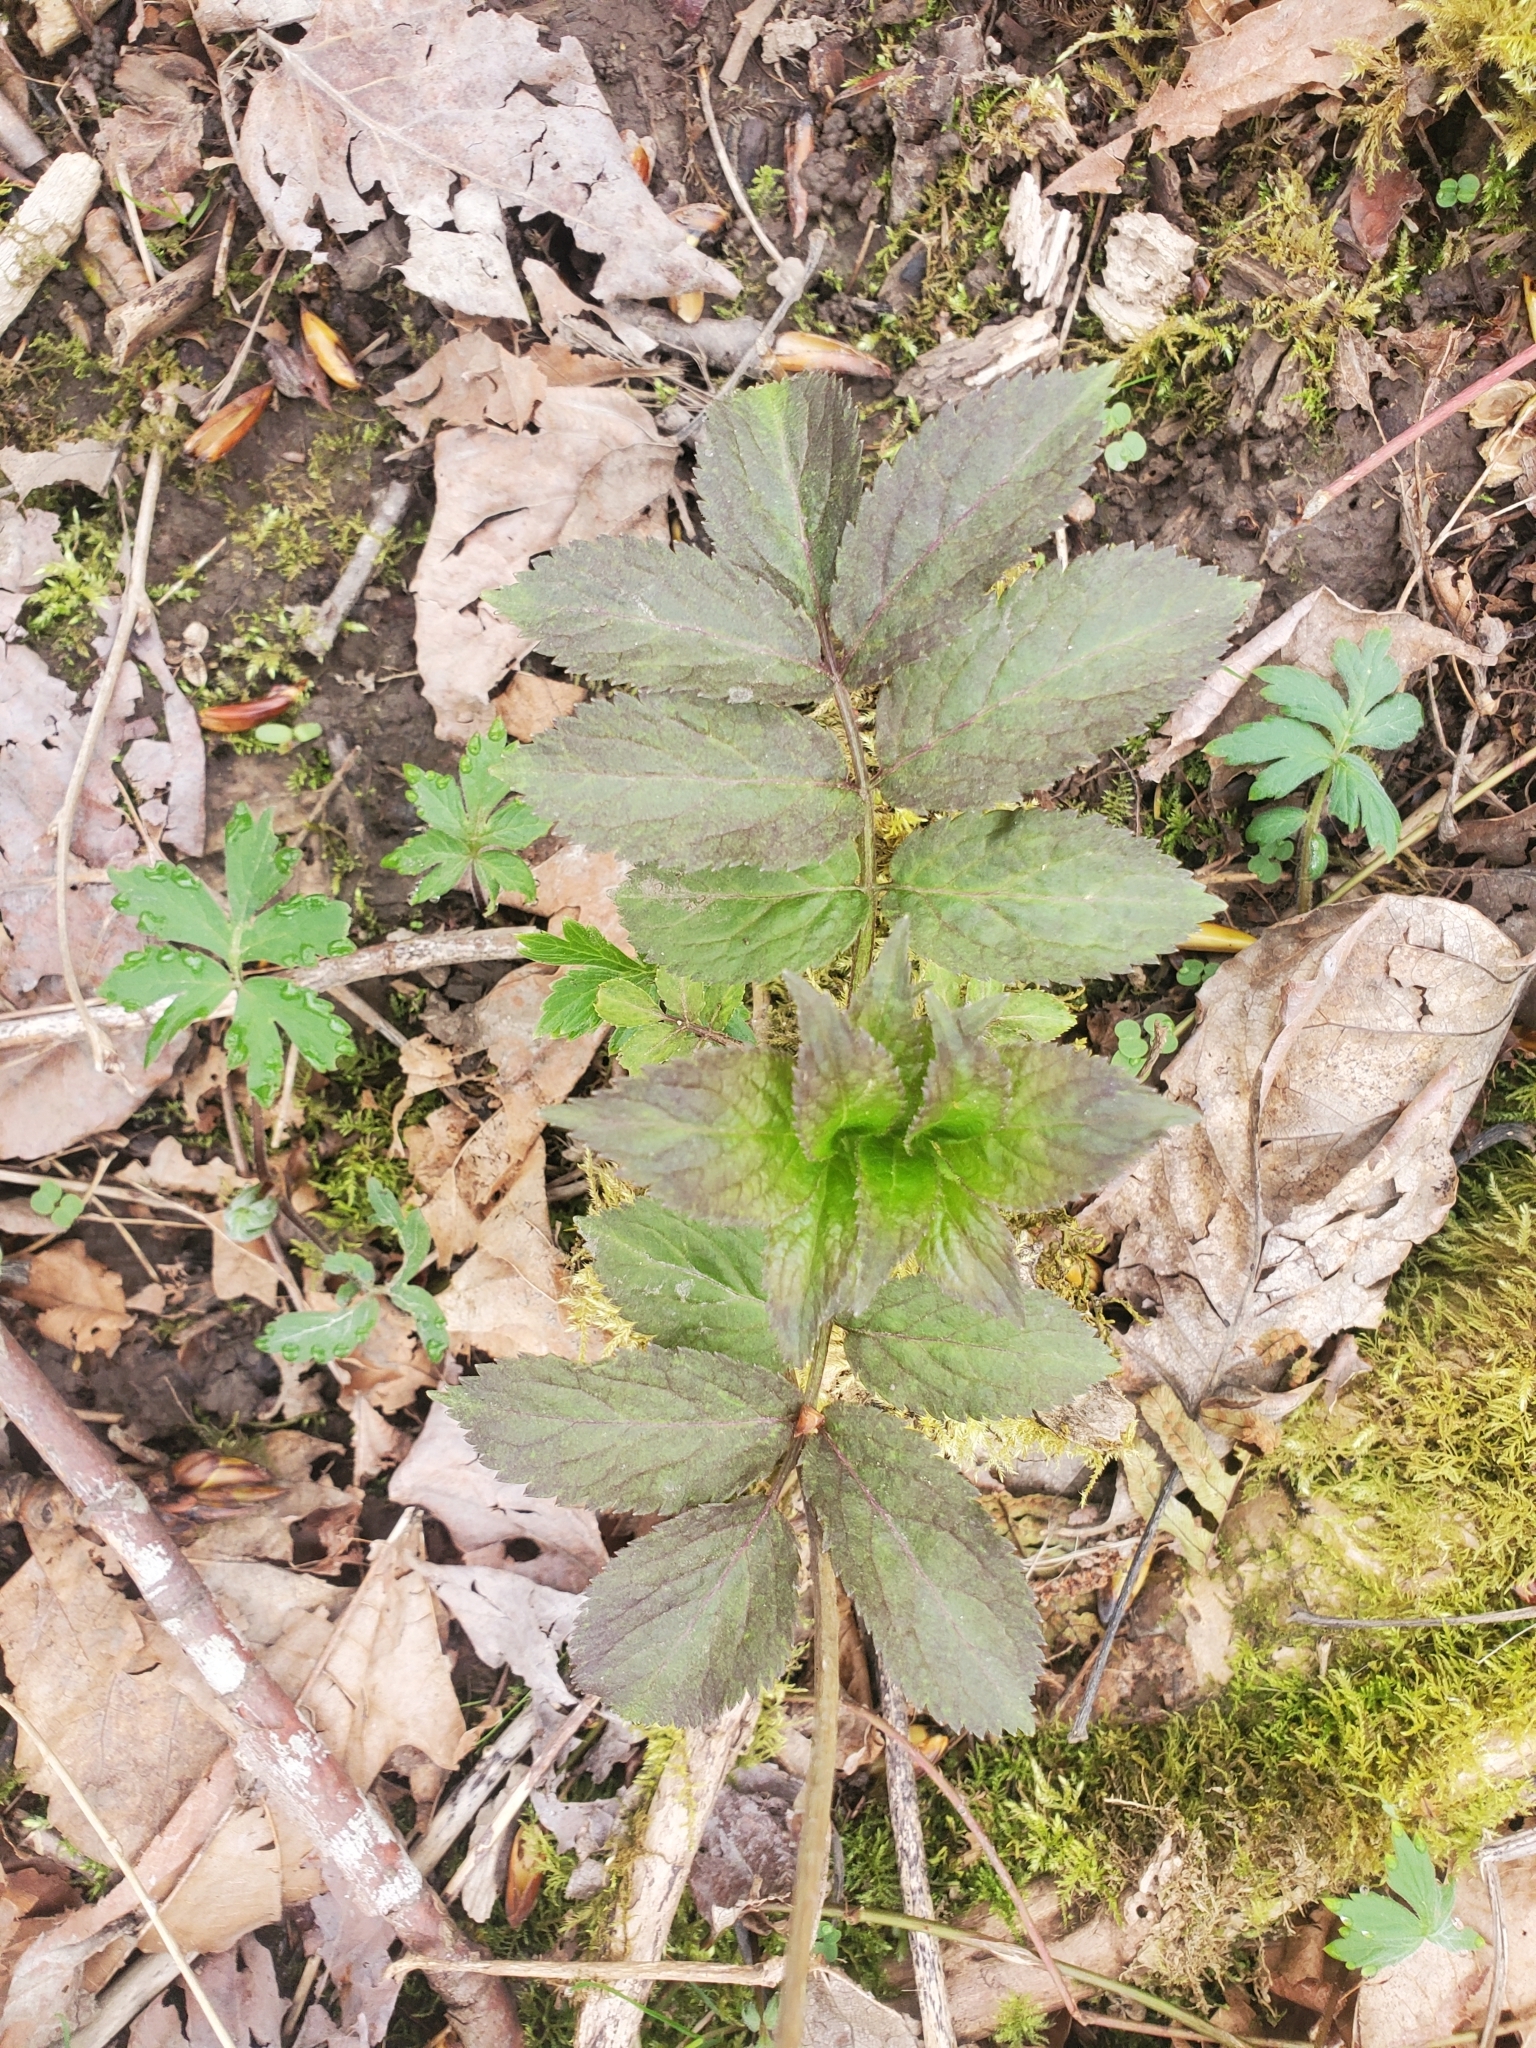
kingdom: Plantae
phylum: Tracheophyta
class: Magnoliopsida
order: Dipsacales
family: Viburnaceae
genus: Sambucus
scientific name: Sambucus racemosa
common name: Red-berried elder
